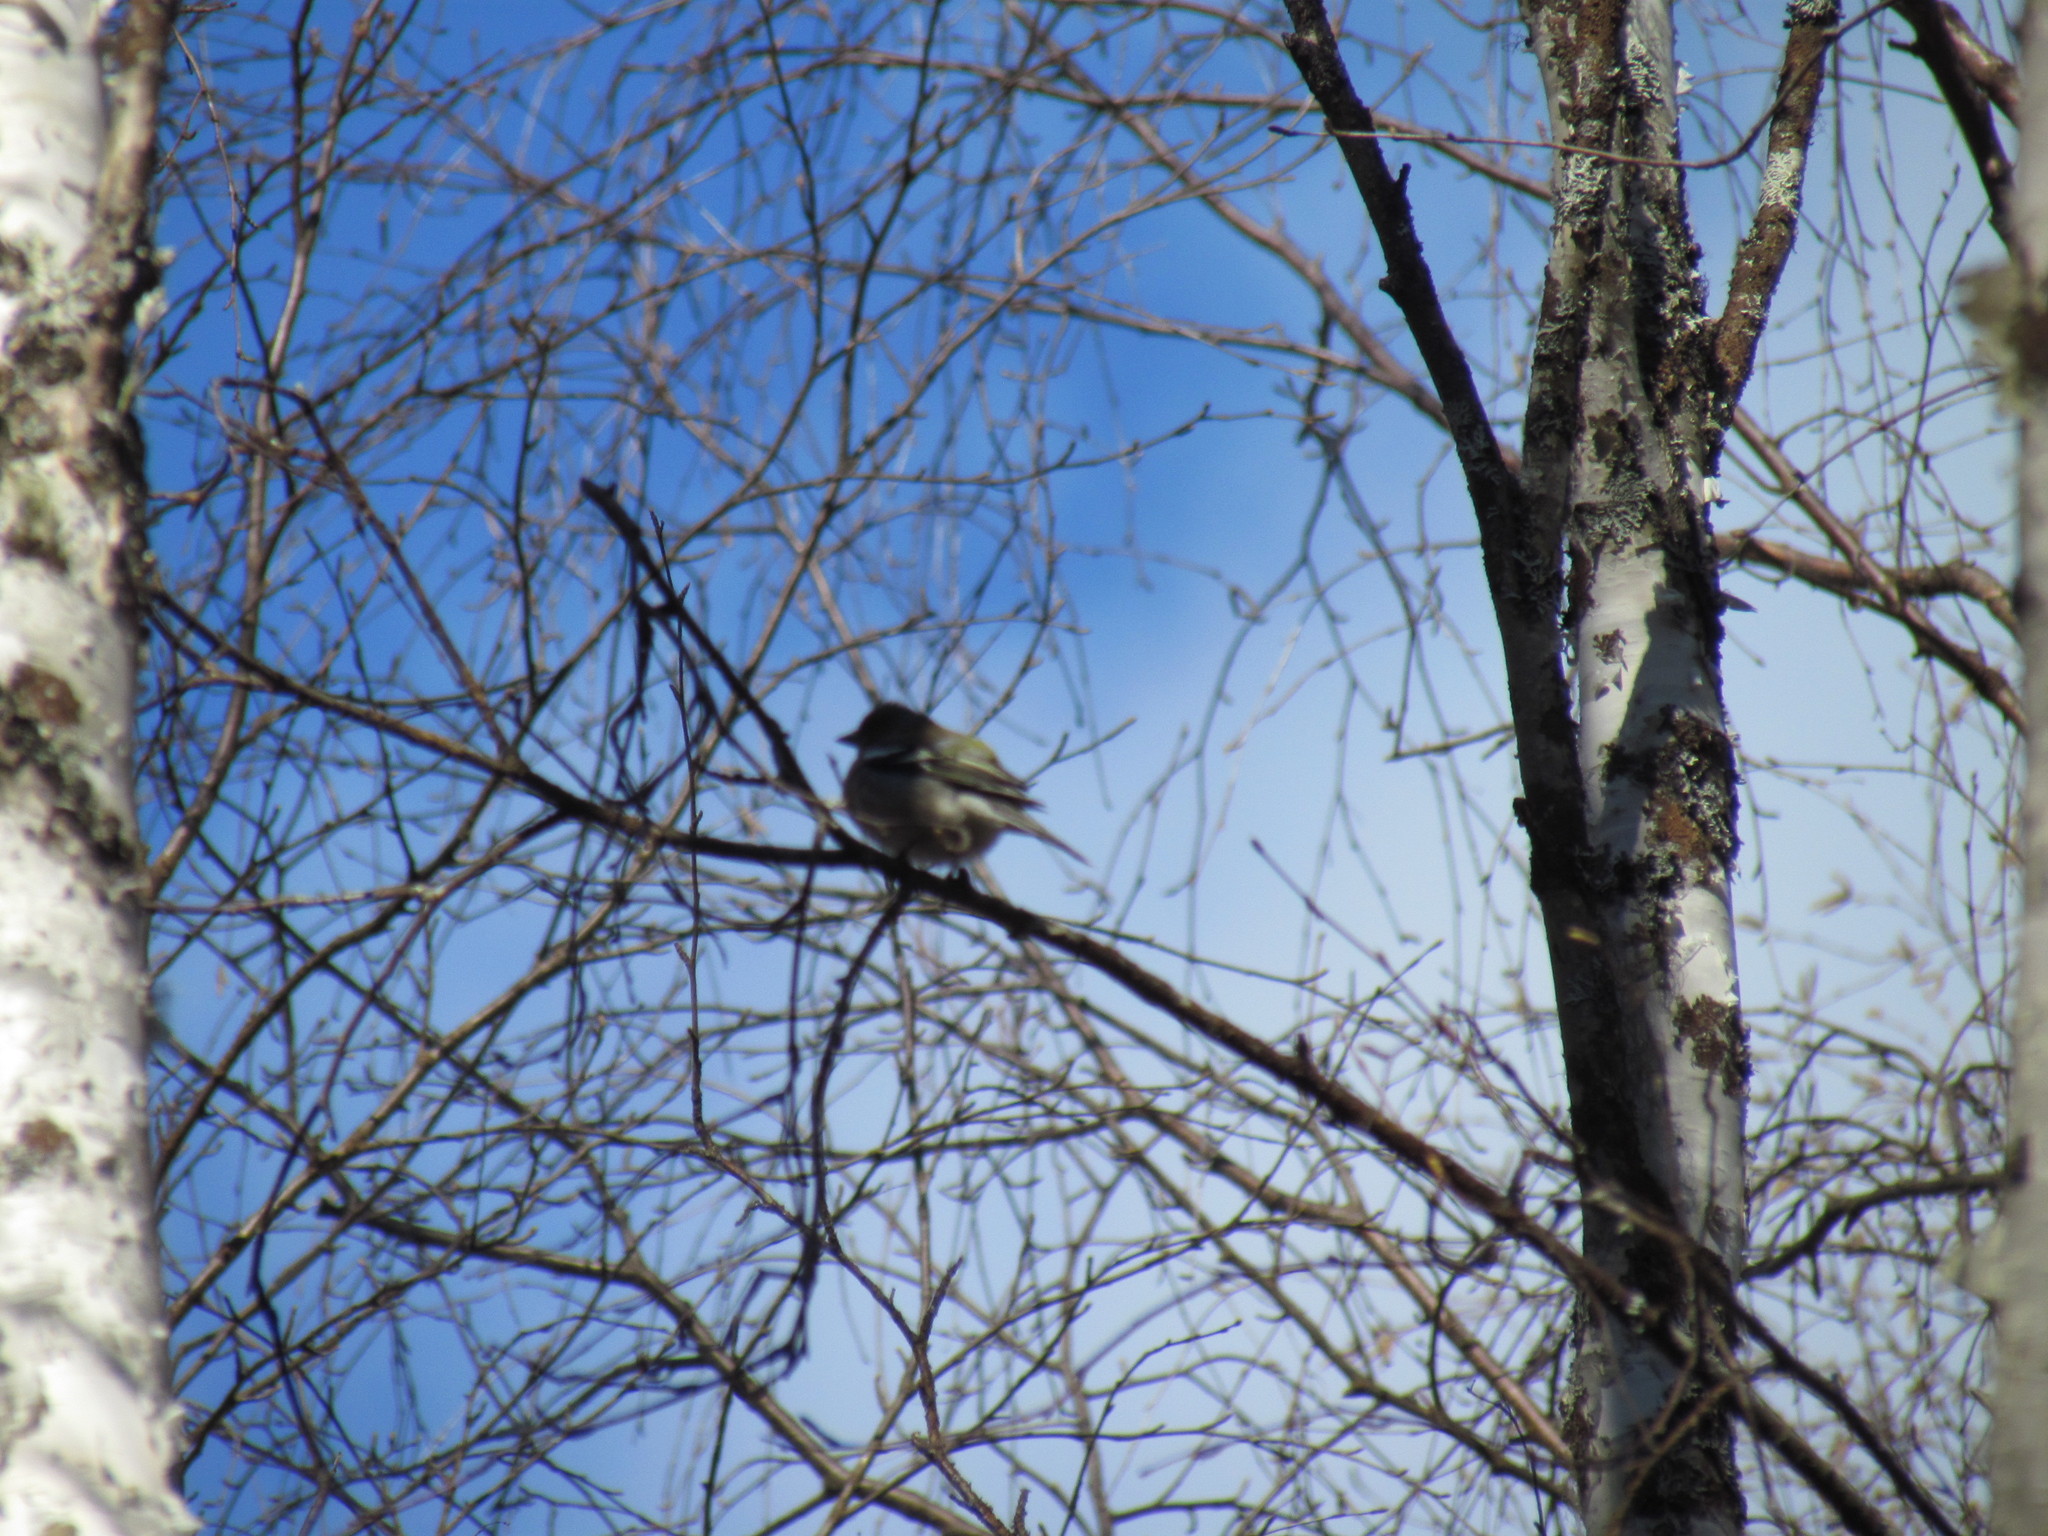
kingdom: Animalia
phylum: Chordata
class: Aves
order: Passeriformes
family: Fringillidae
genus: Fringilla
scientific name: Fringilla coelebs
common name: Common chaffinch
